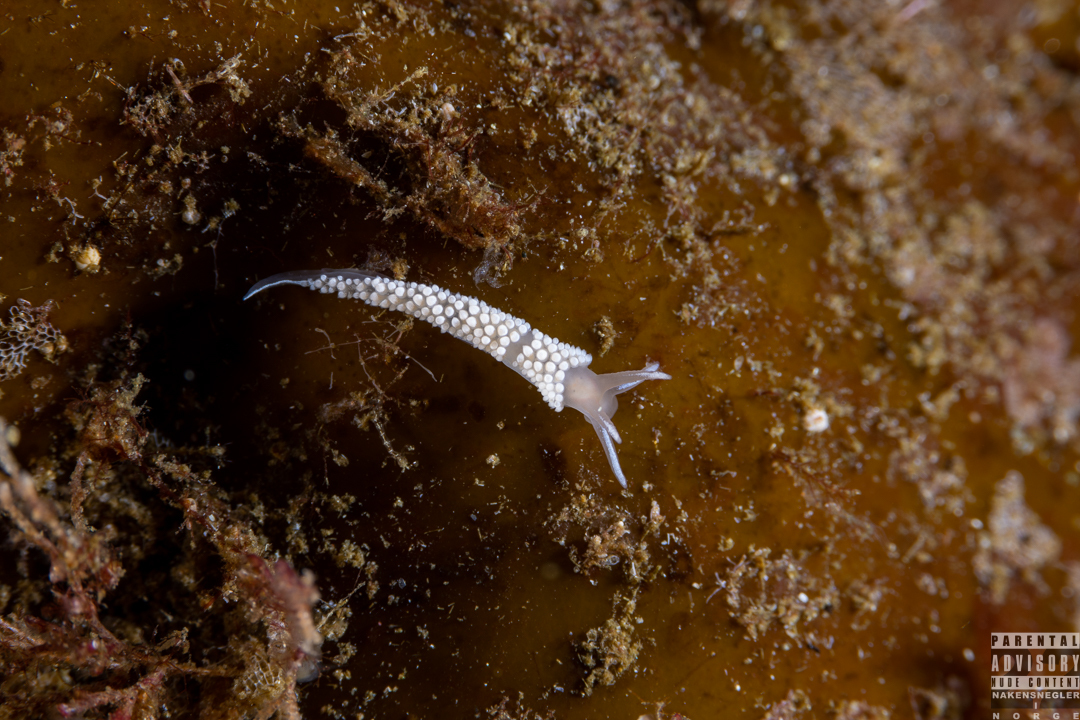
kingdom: Animalia
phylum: Mollusca
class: Gastropoda
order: Nudibranchia
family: Coryphellidae
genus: Coryphella
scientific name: Coryphella verrucosa
